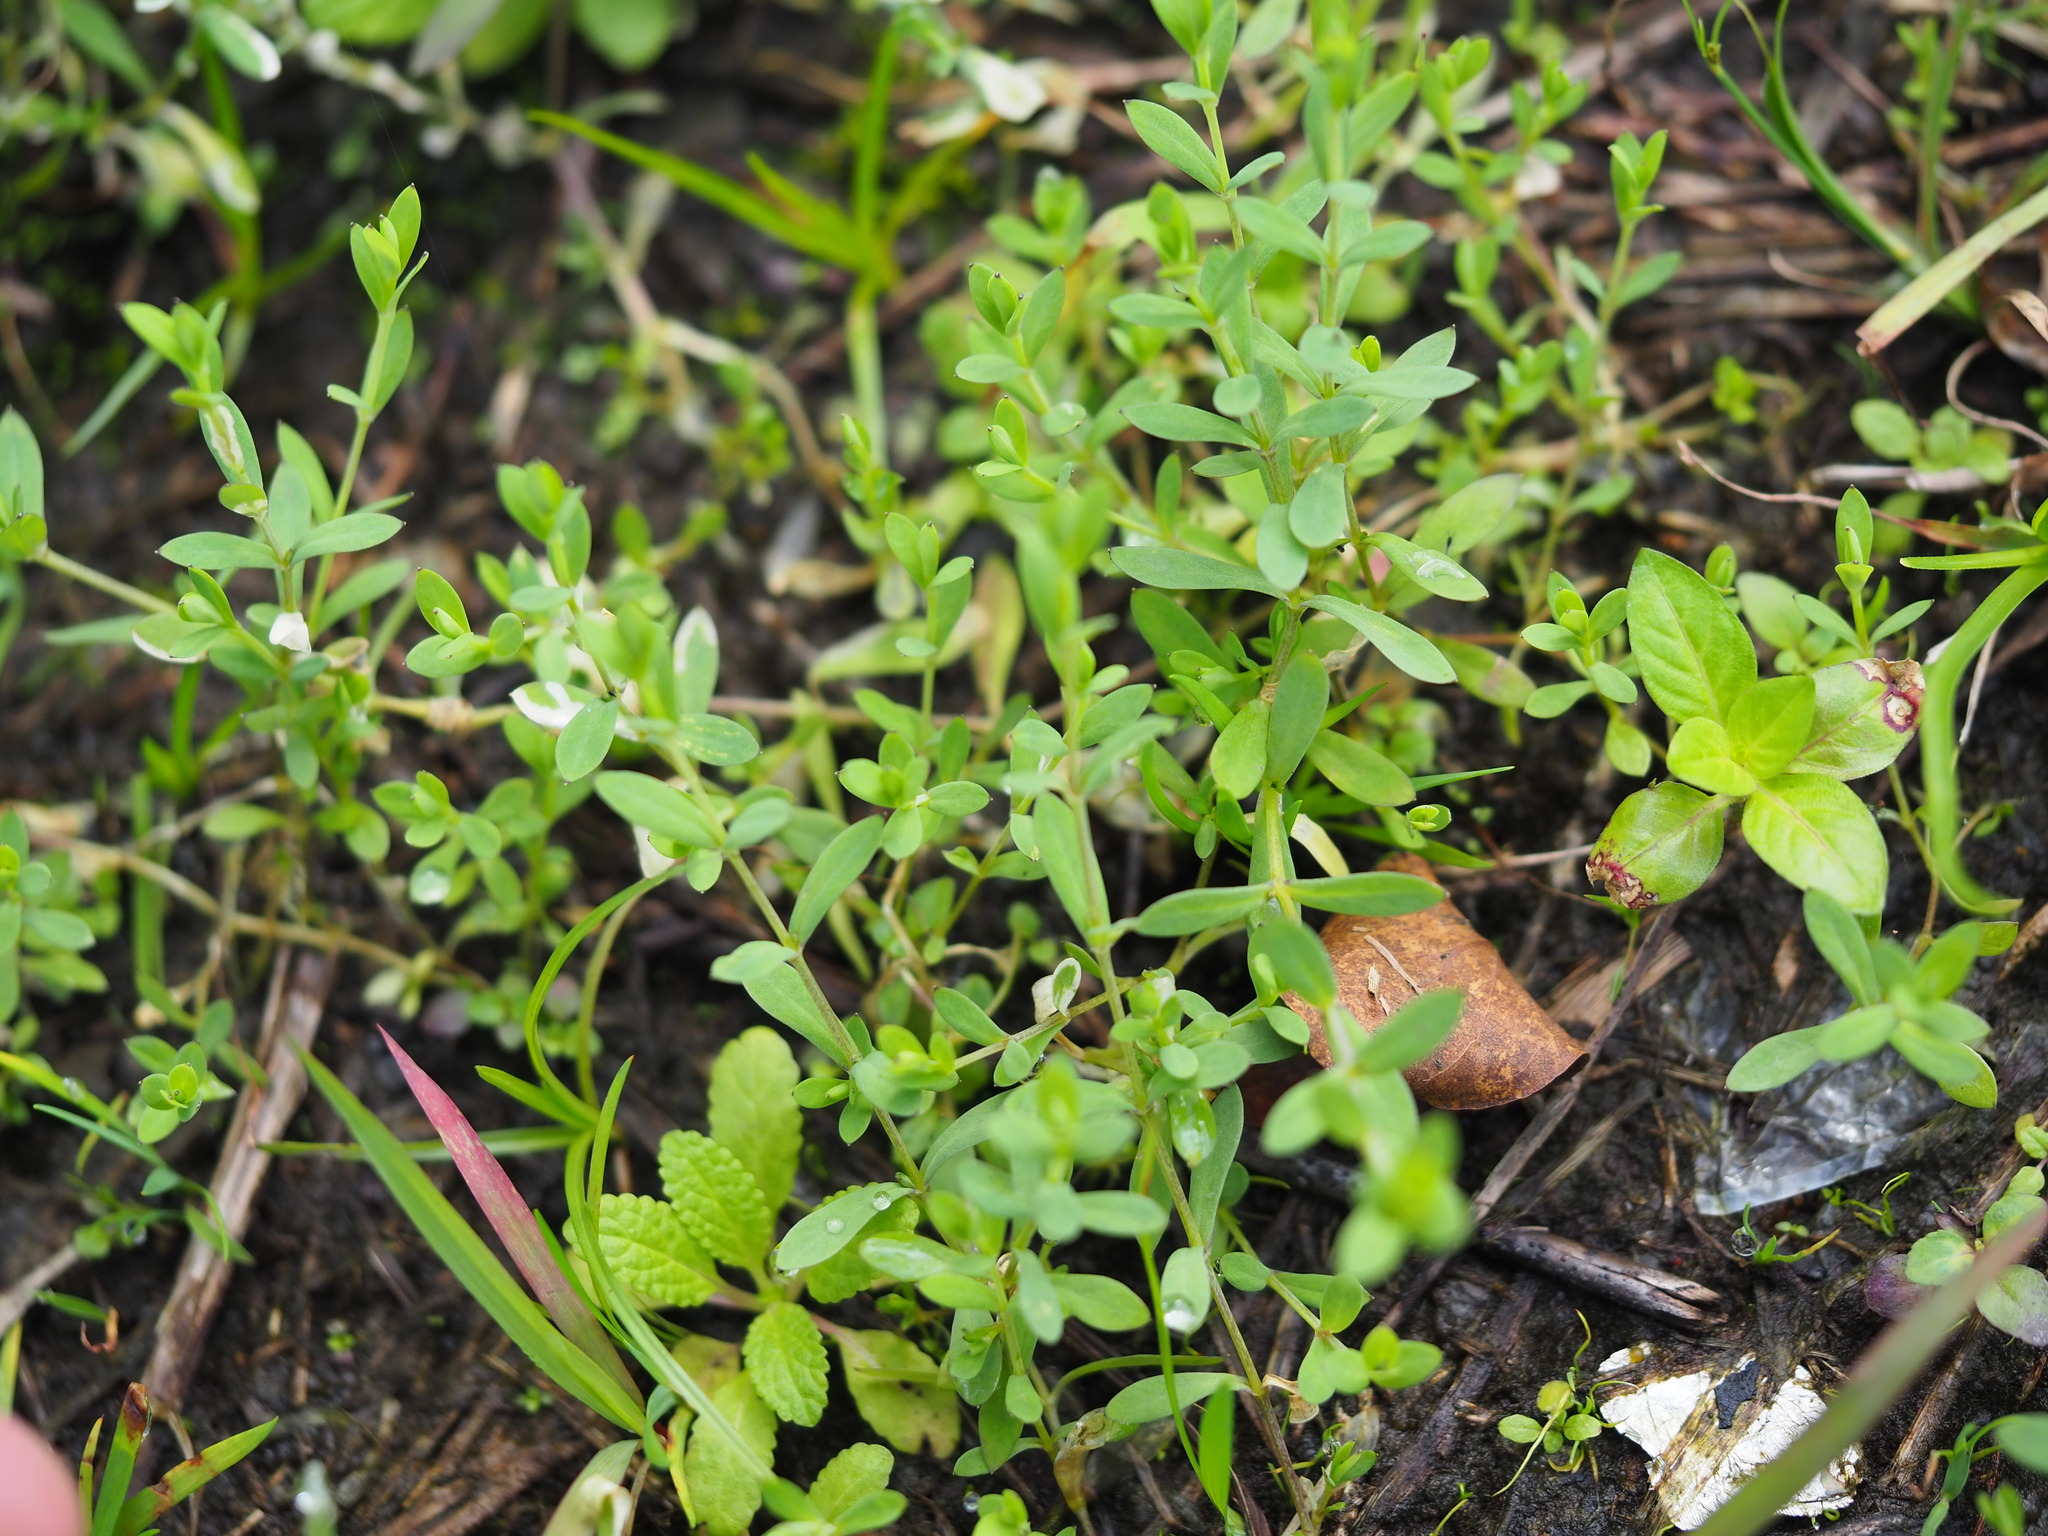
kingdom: Plantae
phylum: Tracheophyta
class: Magnoliopsida
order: Caryophyllales
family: Caryophyllaceae
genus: Stellaria
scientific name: Stellaria alsine
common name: Bog stitchwort
